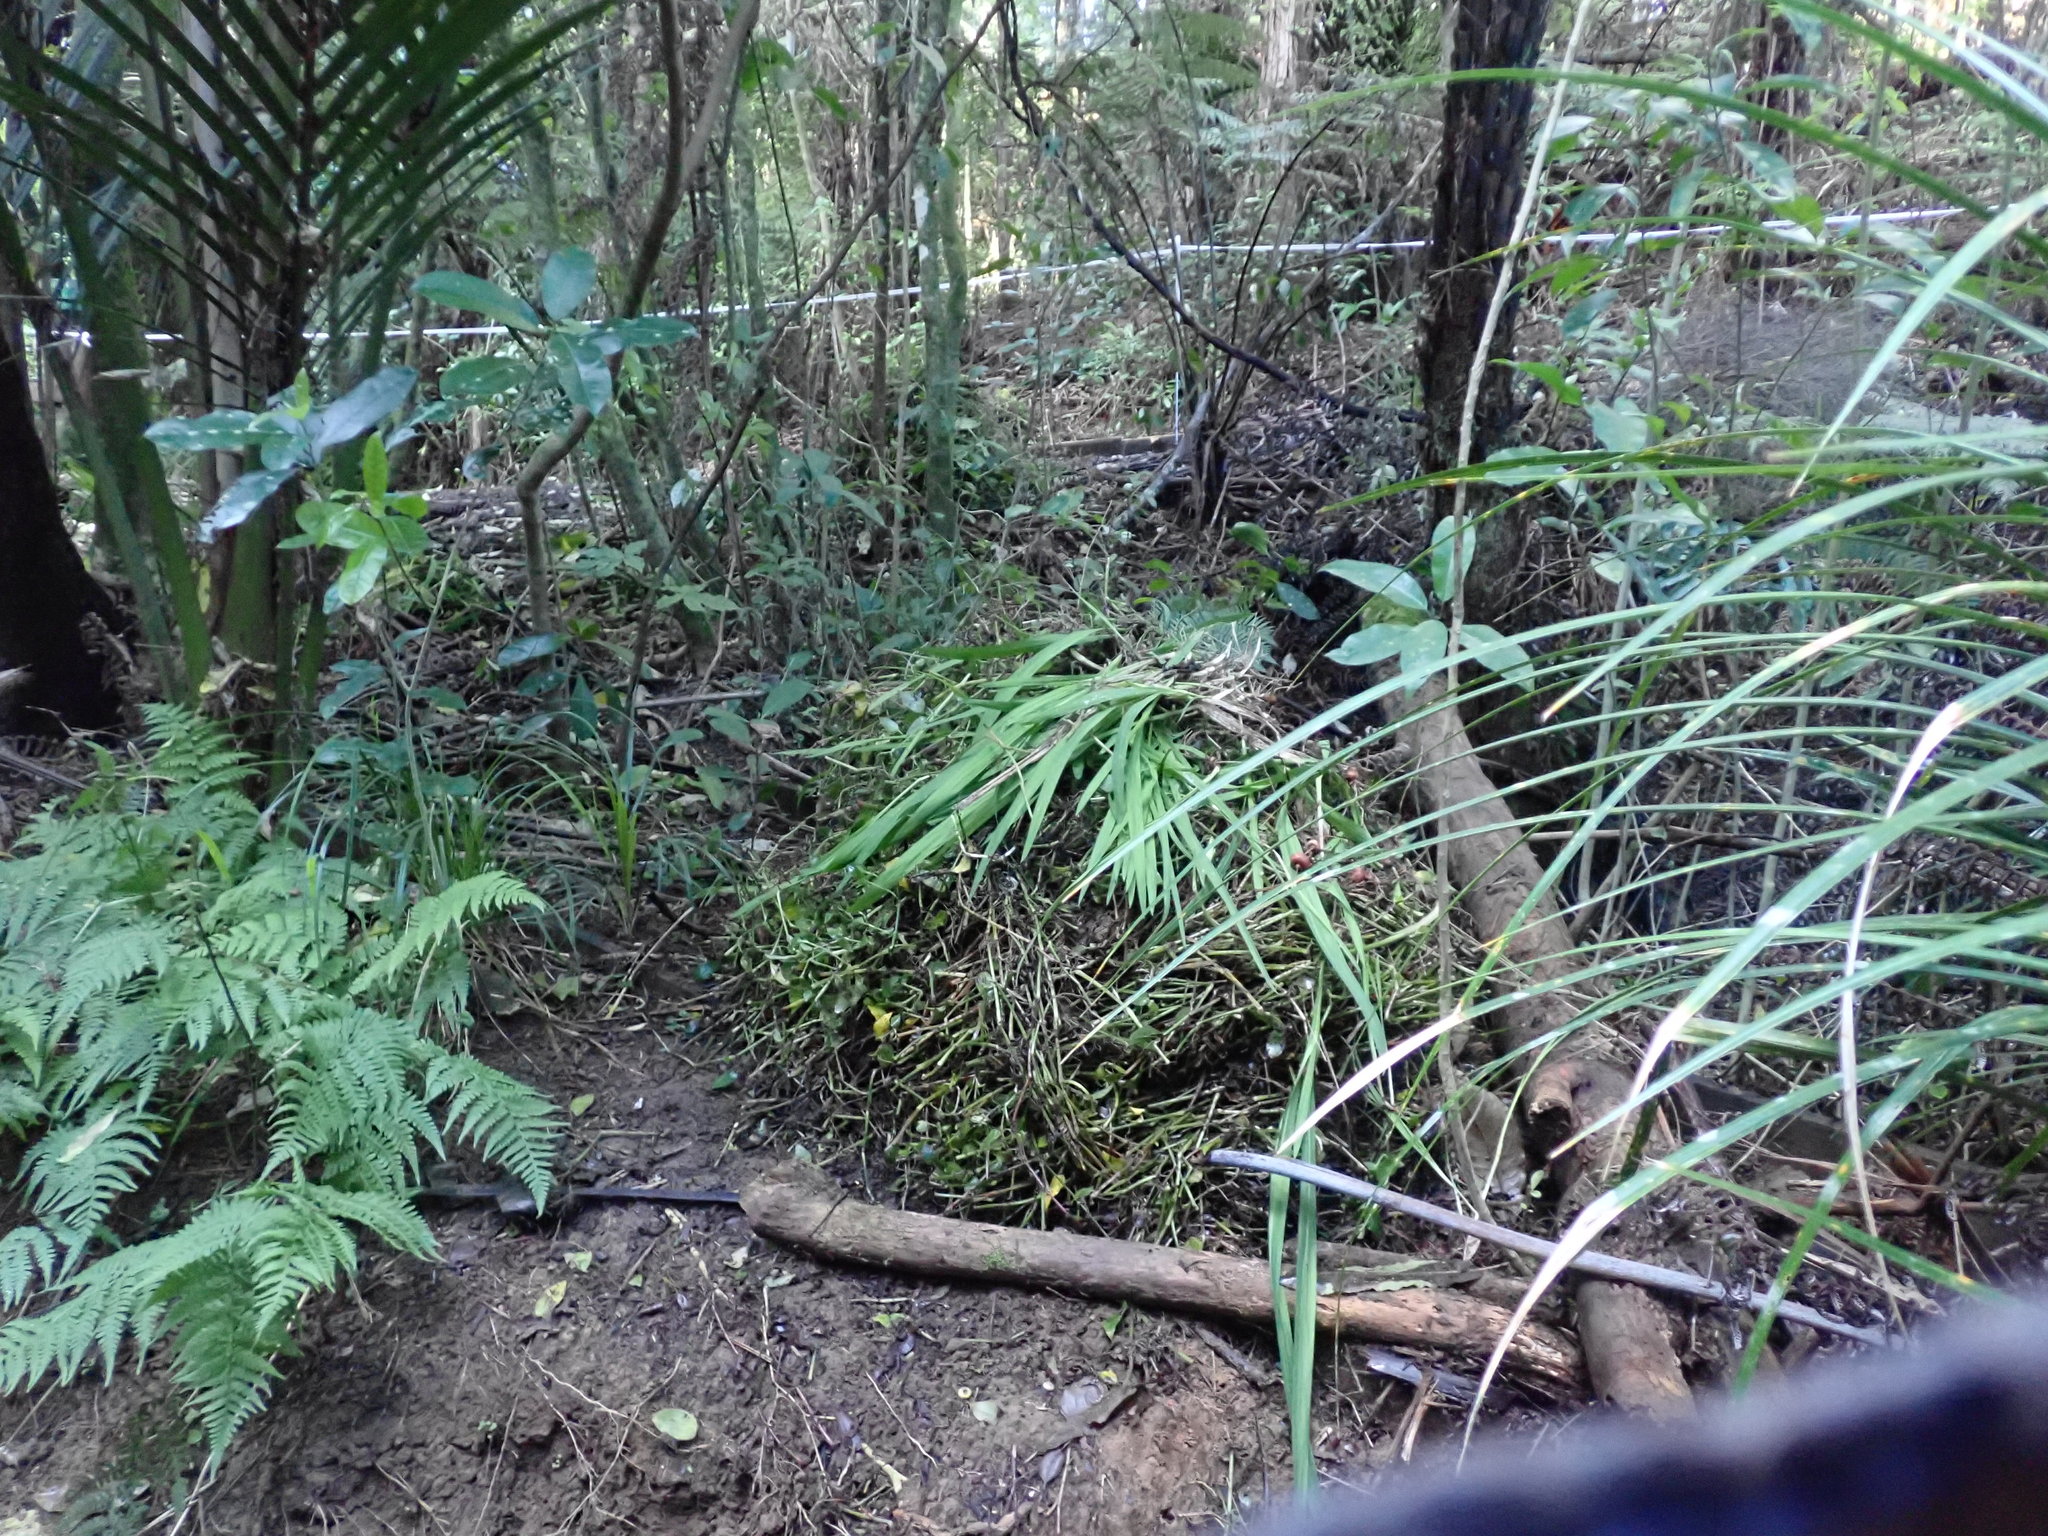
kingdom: Plantae
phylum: Tracheophyta
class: Polypodiopsida
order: Polypodiales
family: Athyriaceae
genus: Deparia
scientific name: Deparia petersenii
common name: Japanese false spleenwort
